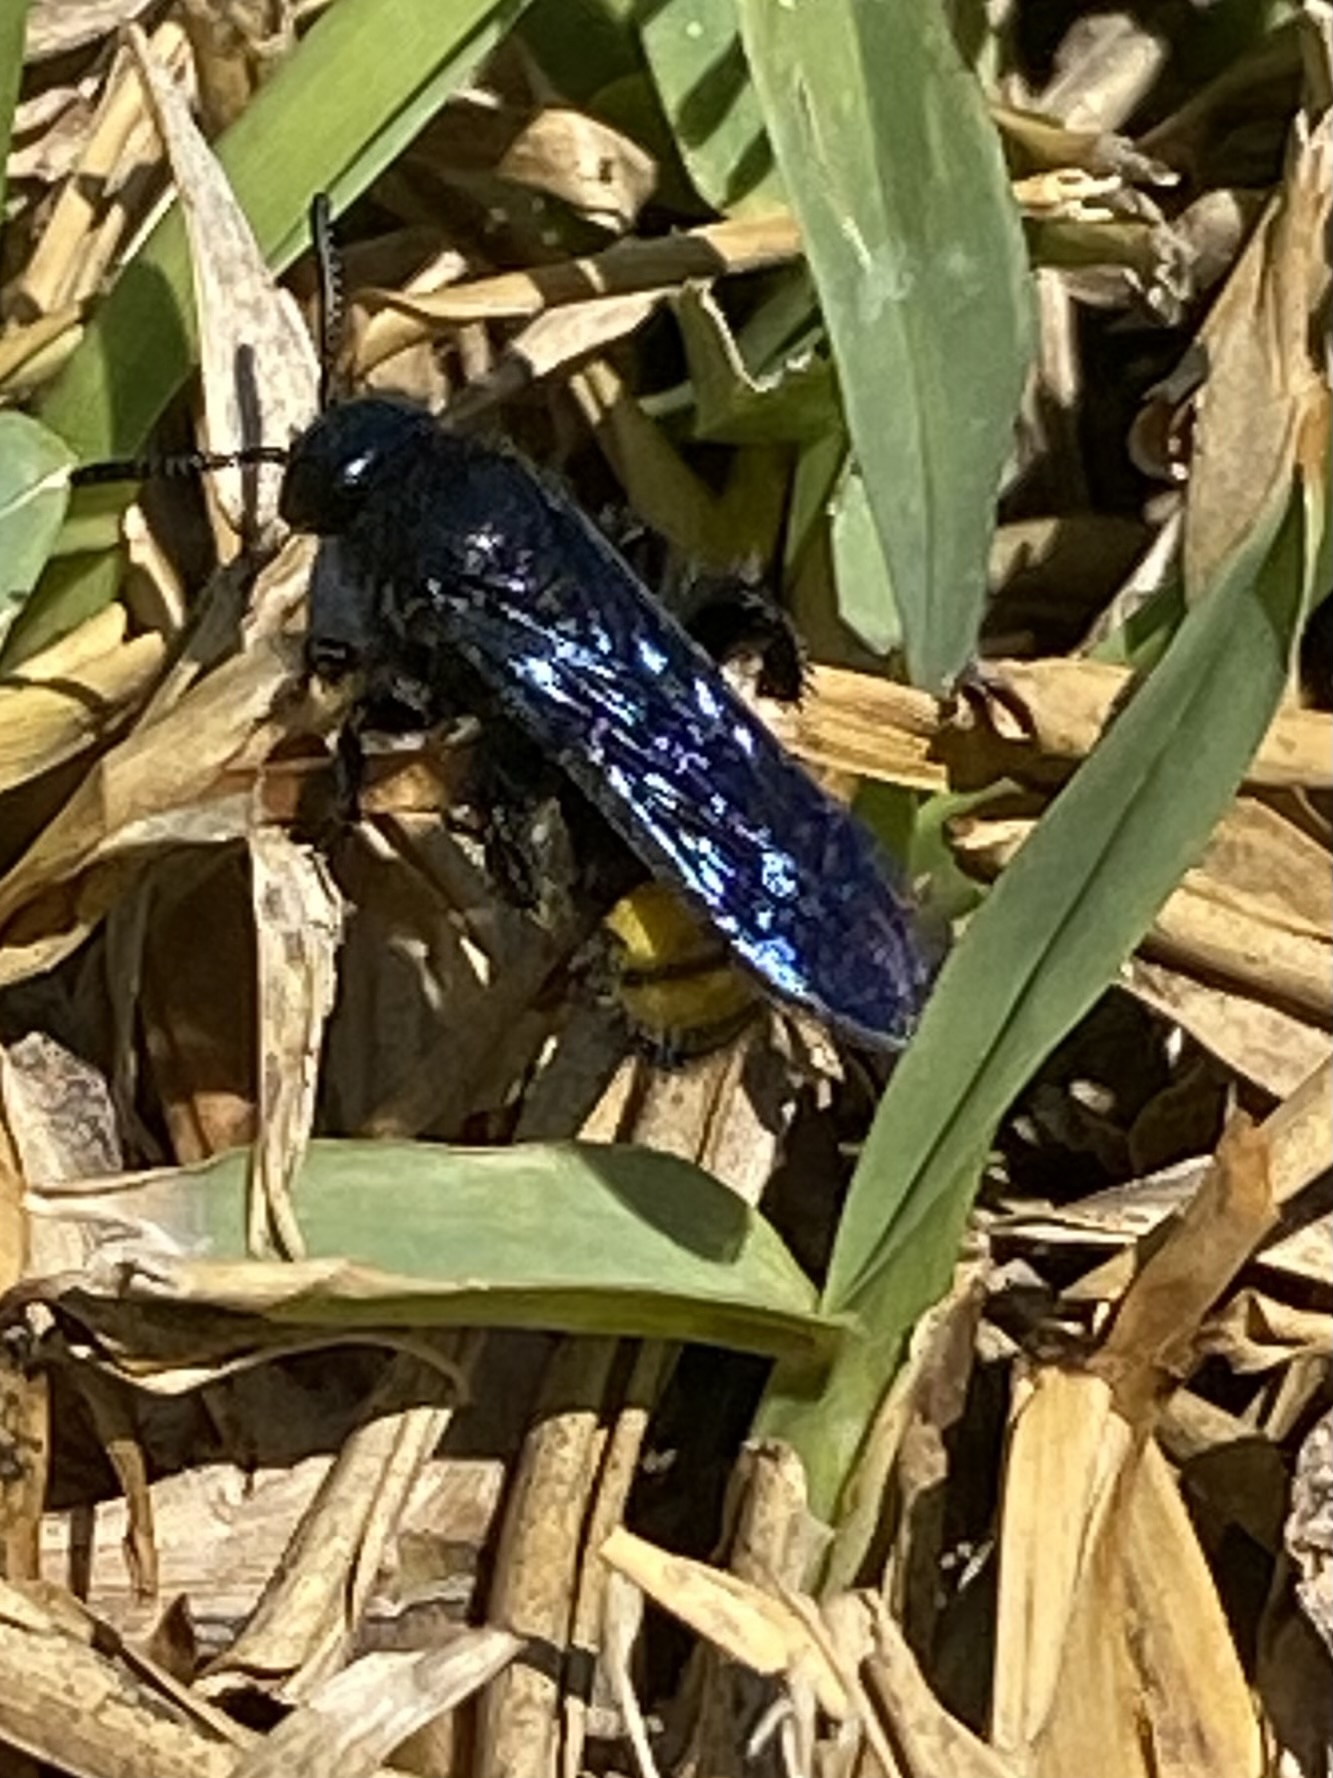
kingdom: Animalia
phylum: Arthropoda
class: Insecta
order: Hymenoptera
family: Scoliidae
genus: Scolia
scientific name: Scolia hirta
